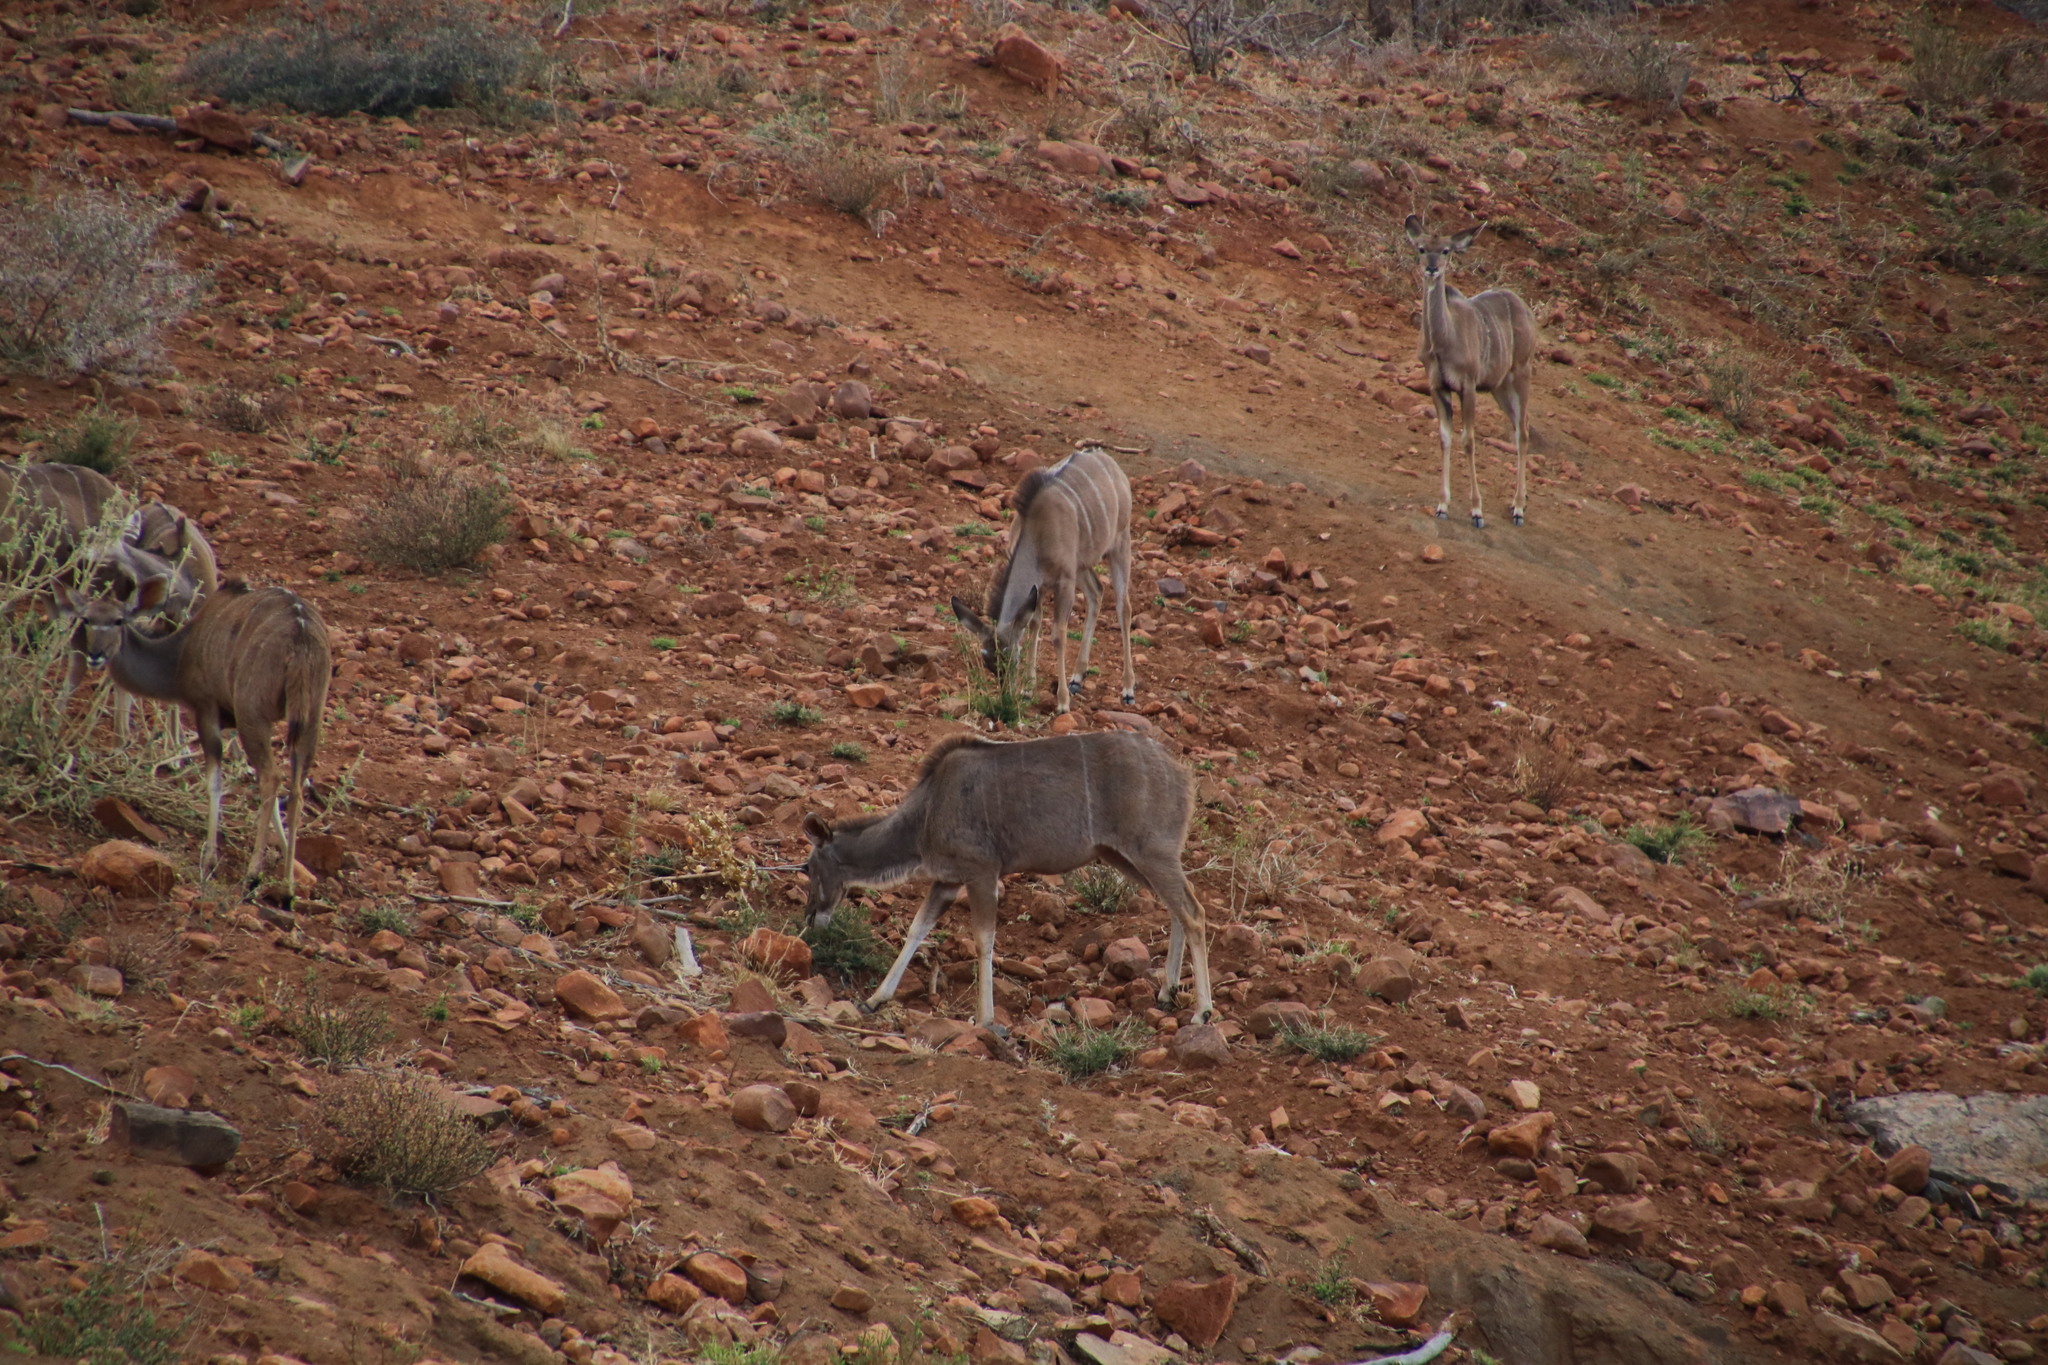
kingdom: Animalia
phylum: Chordata
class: Mammalia
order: Artiodactyla
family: Bovidae
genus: Tragelaphus
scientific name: Tragelaphus strepsiceros
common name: Greater kudu
